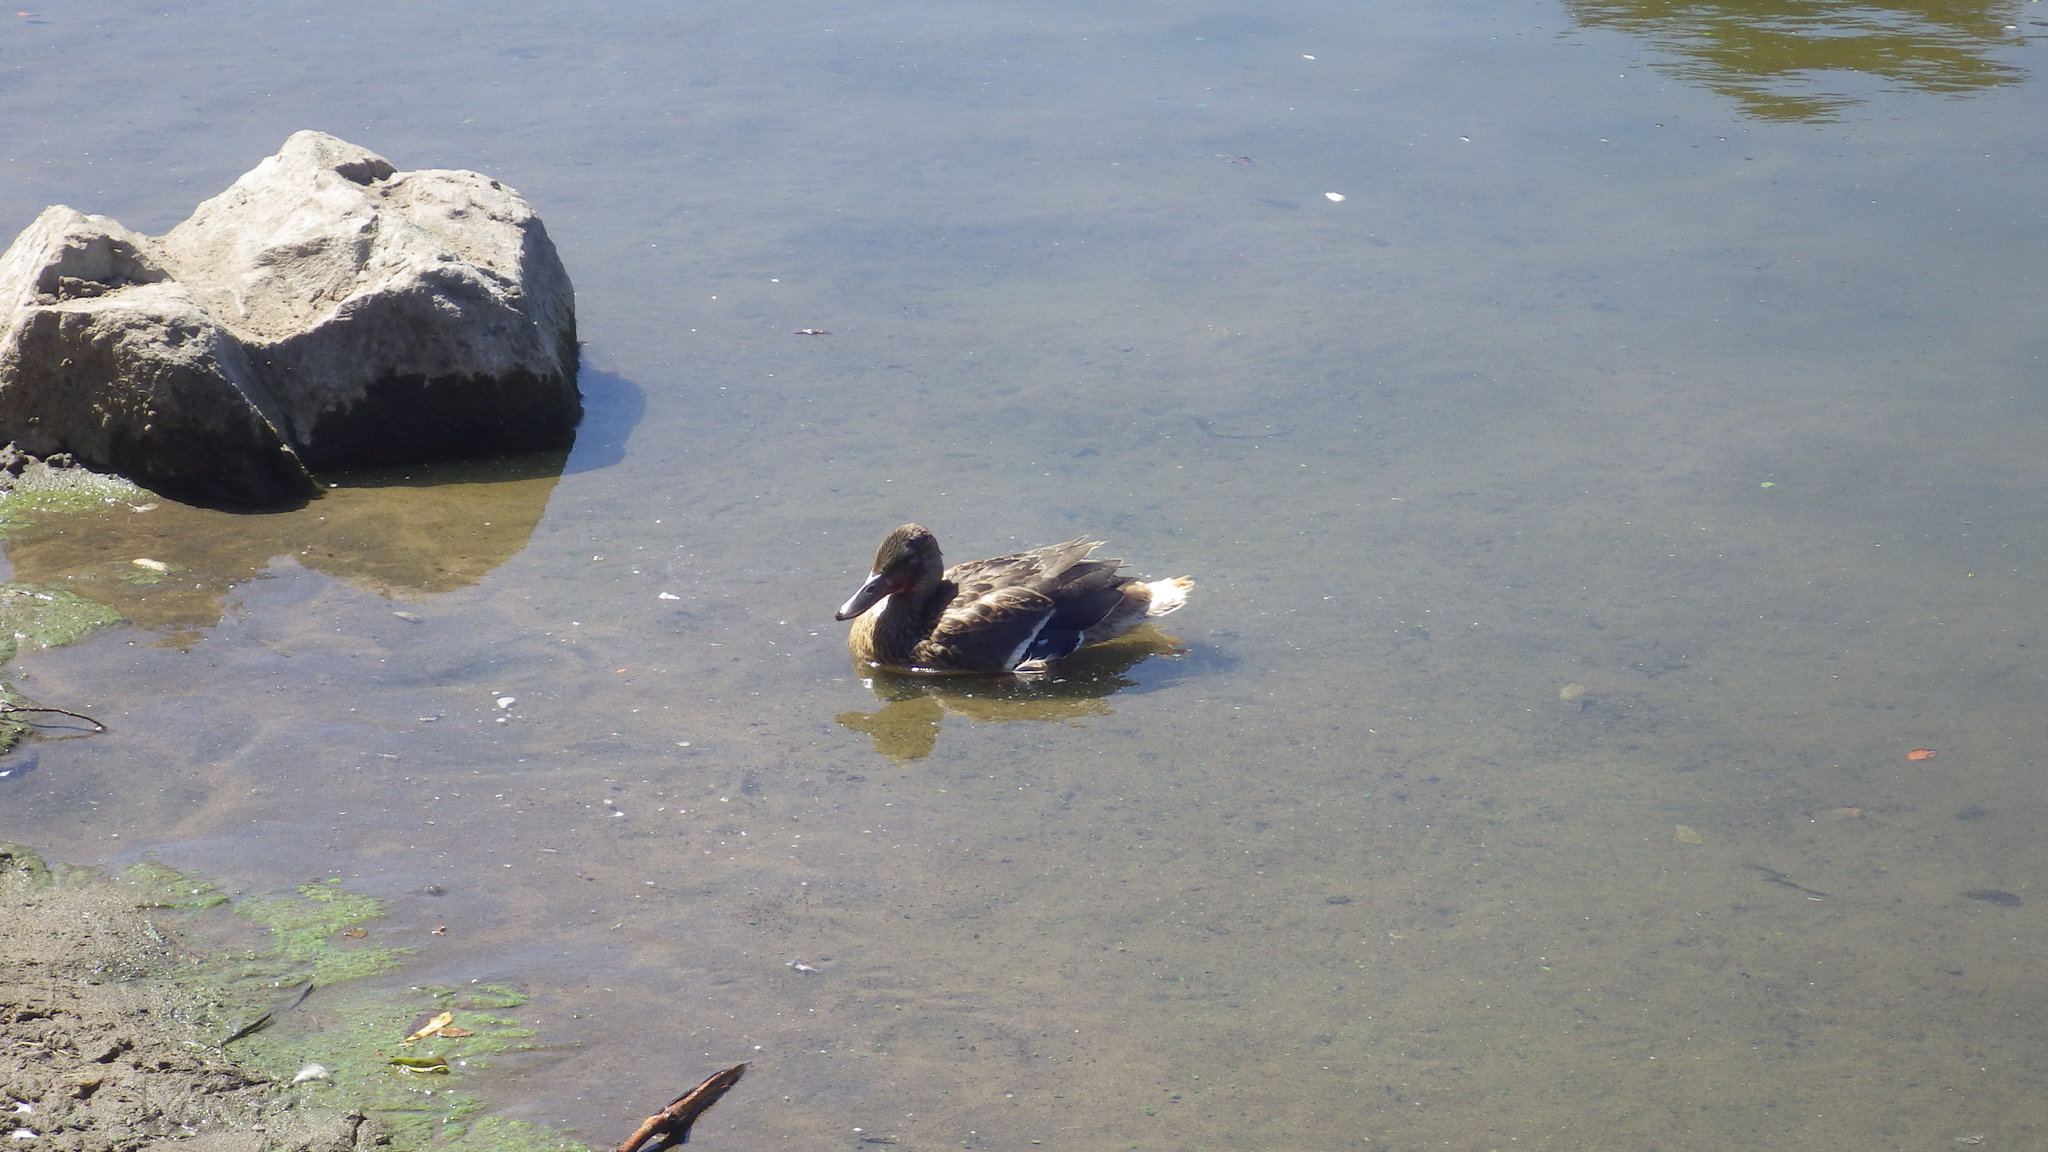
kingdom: Animalia
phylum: Chordata
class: Aves
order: Anseriformes
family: Anatidae
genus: Anas
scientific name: Anas platyrhynchos
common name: Mallard
